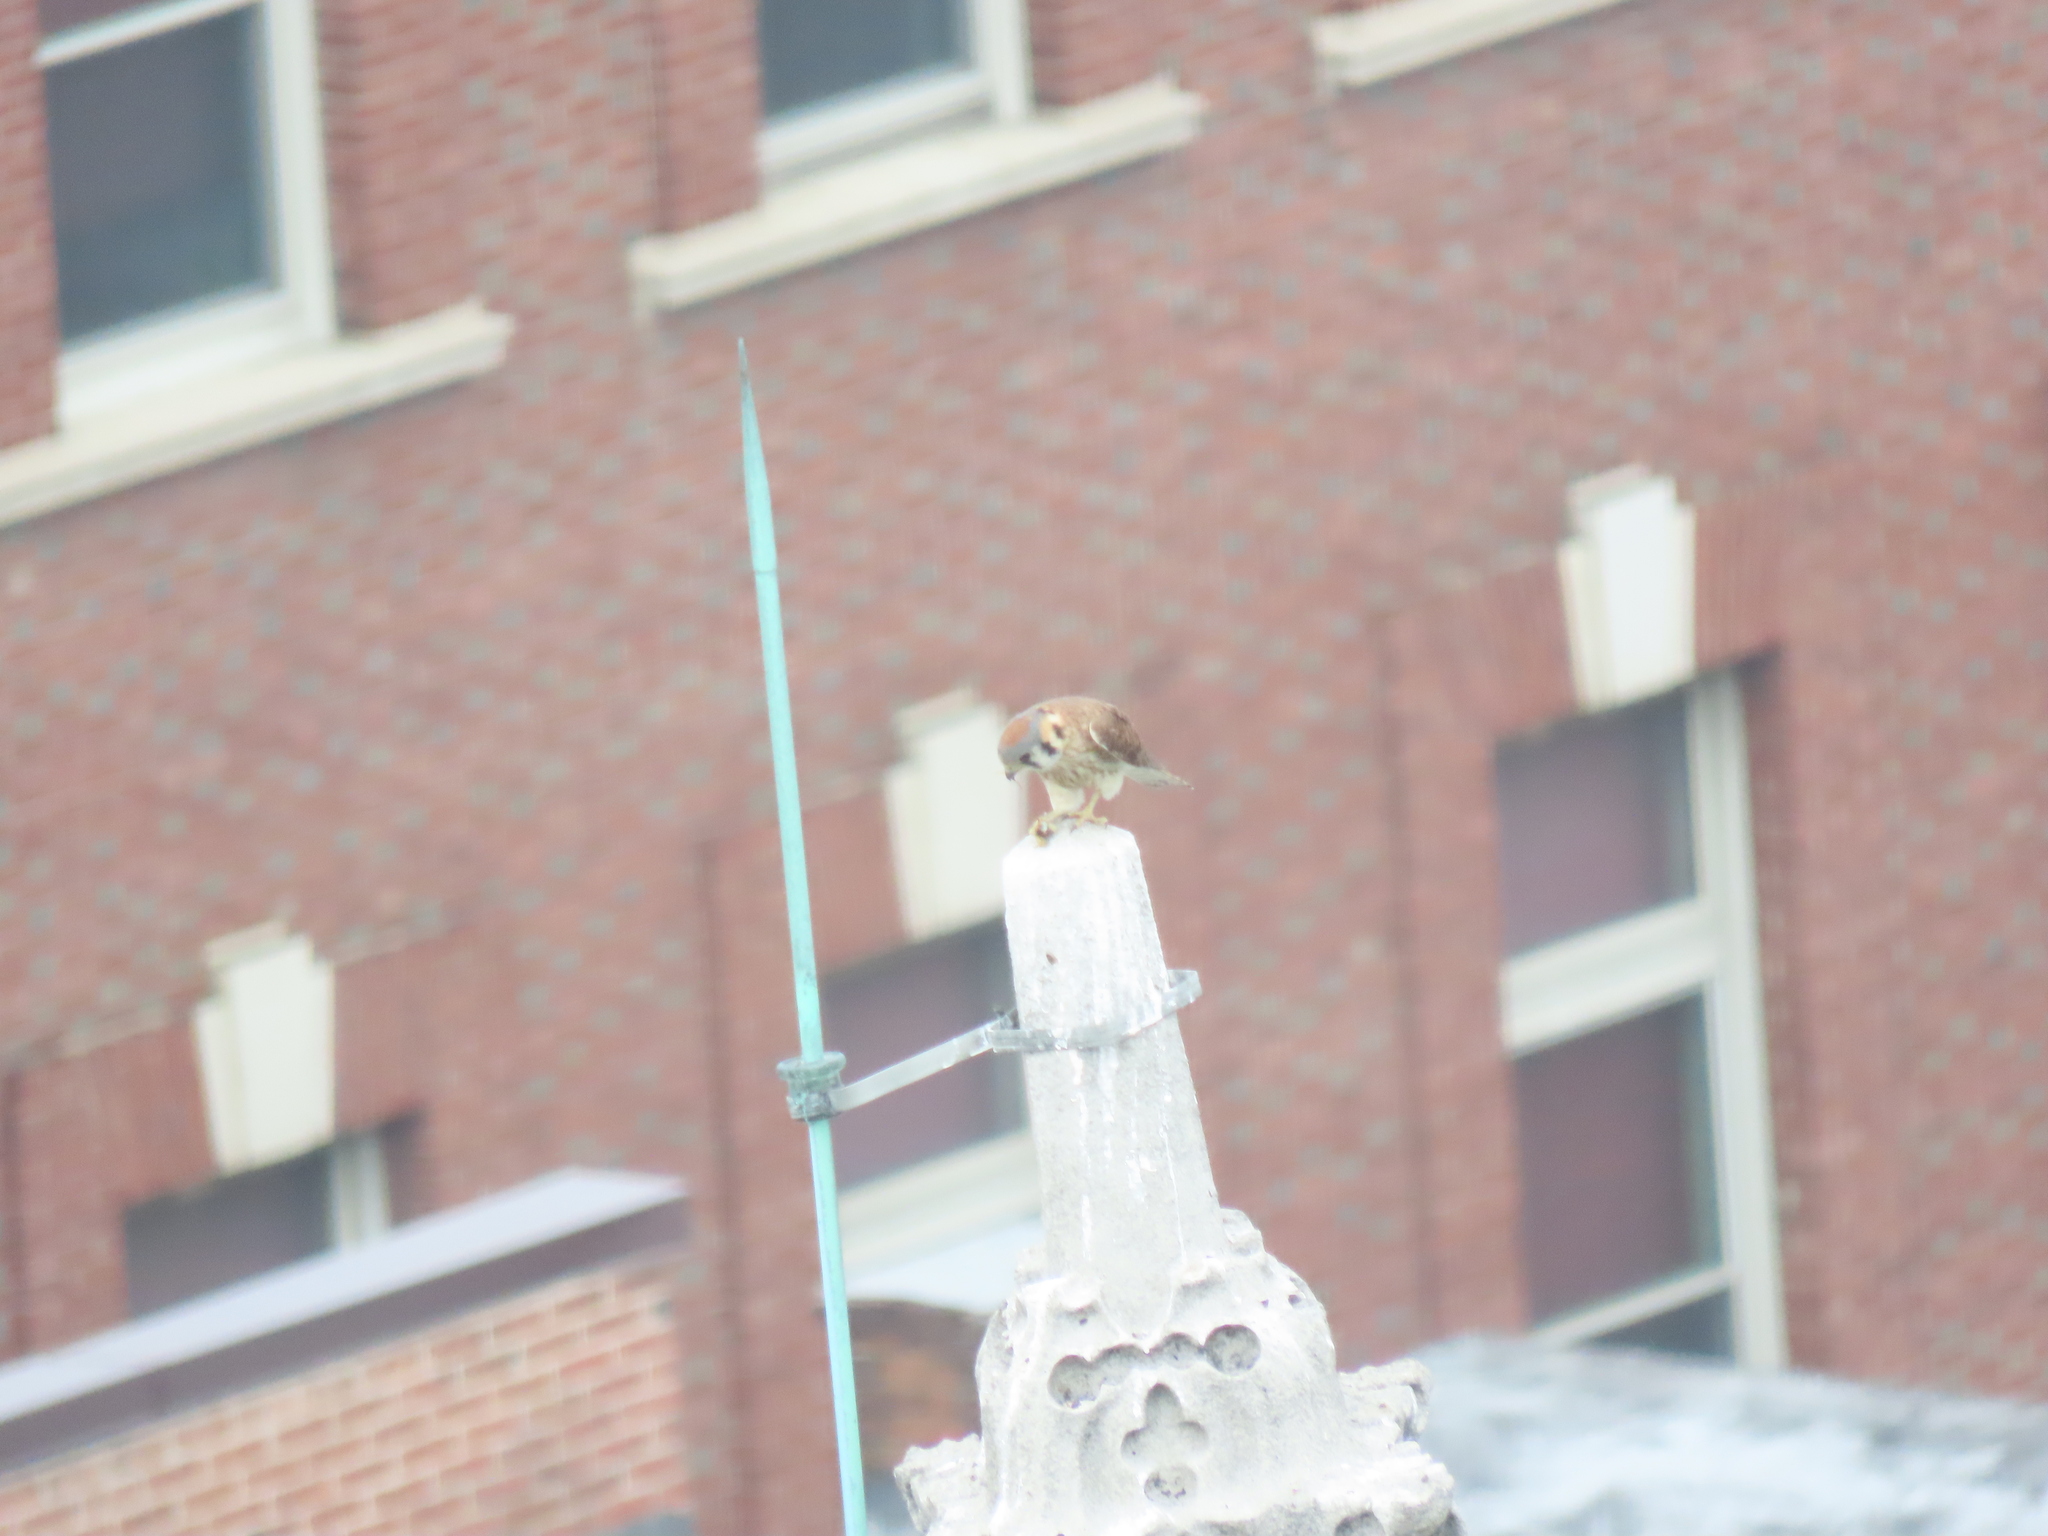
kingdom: Animalia
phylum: Chordata
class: Aves
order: Falconiformes
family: Falconidae
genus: Falco
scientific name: Falco sparverius
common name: American kestrel
